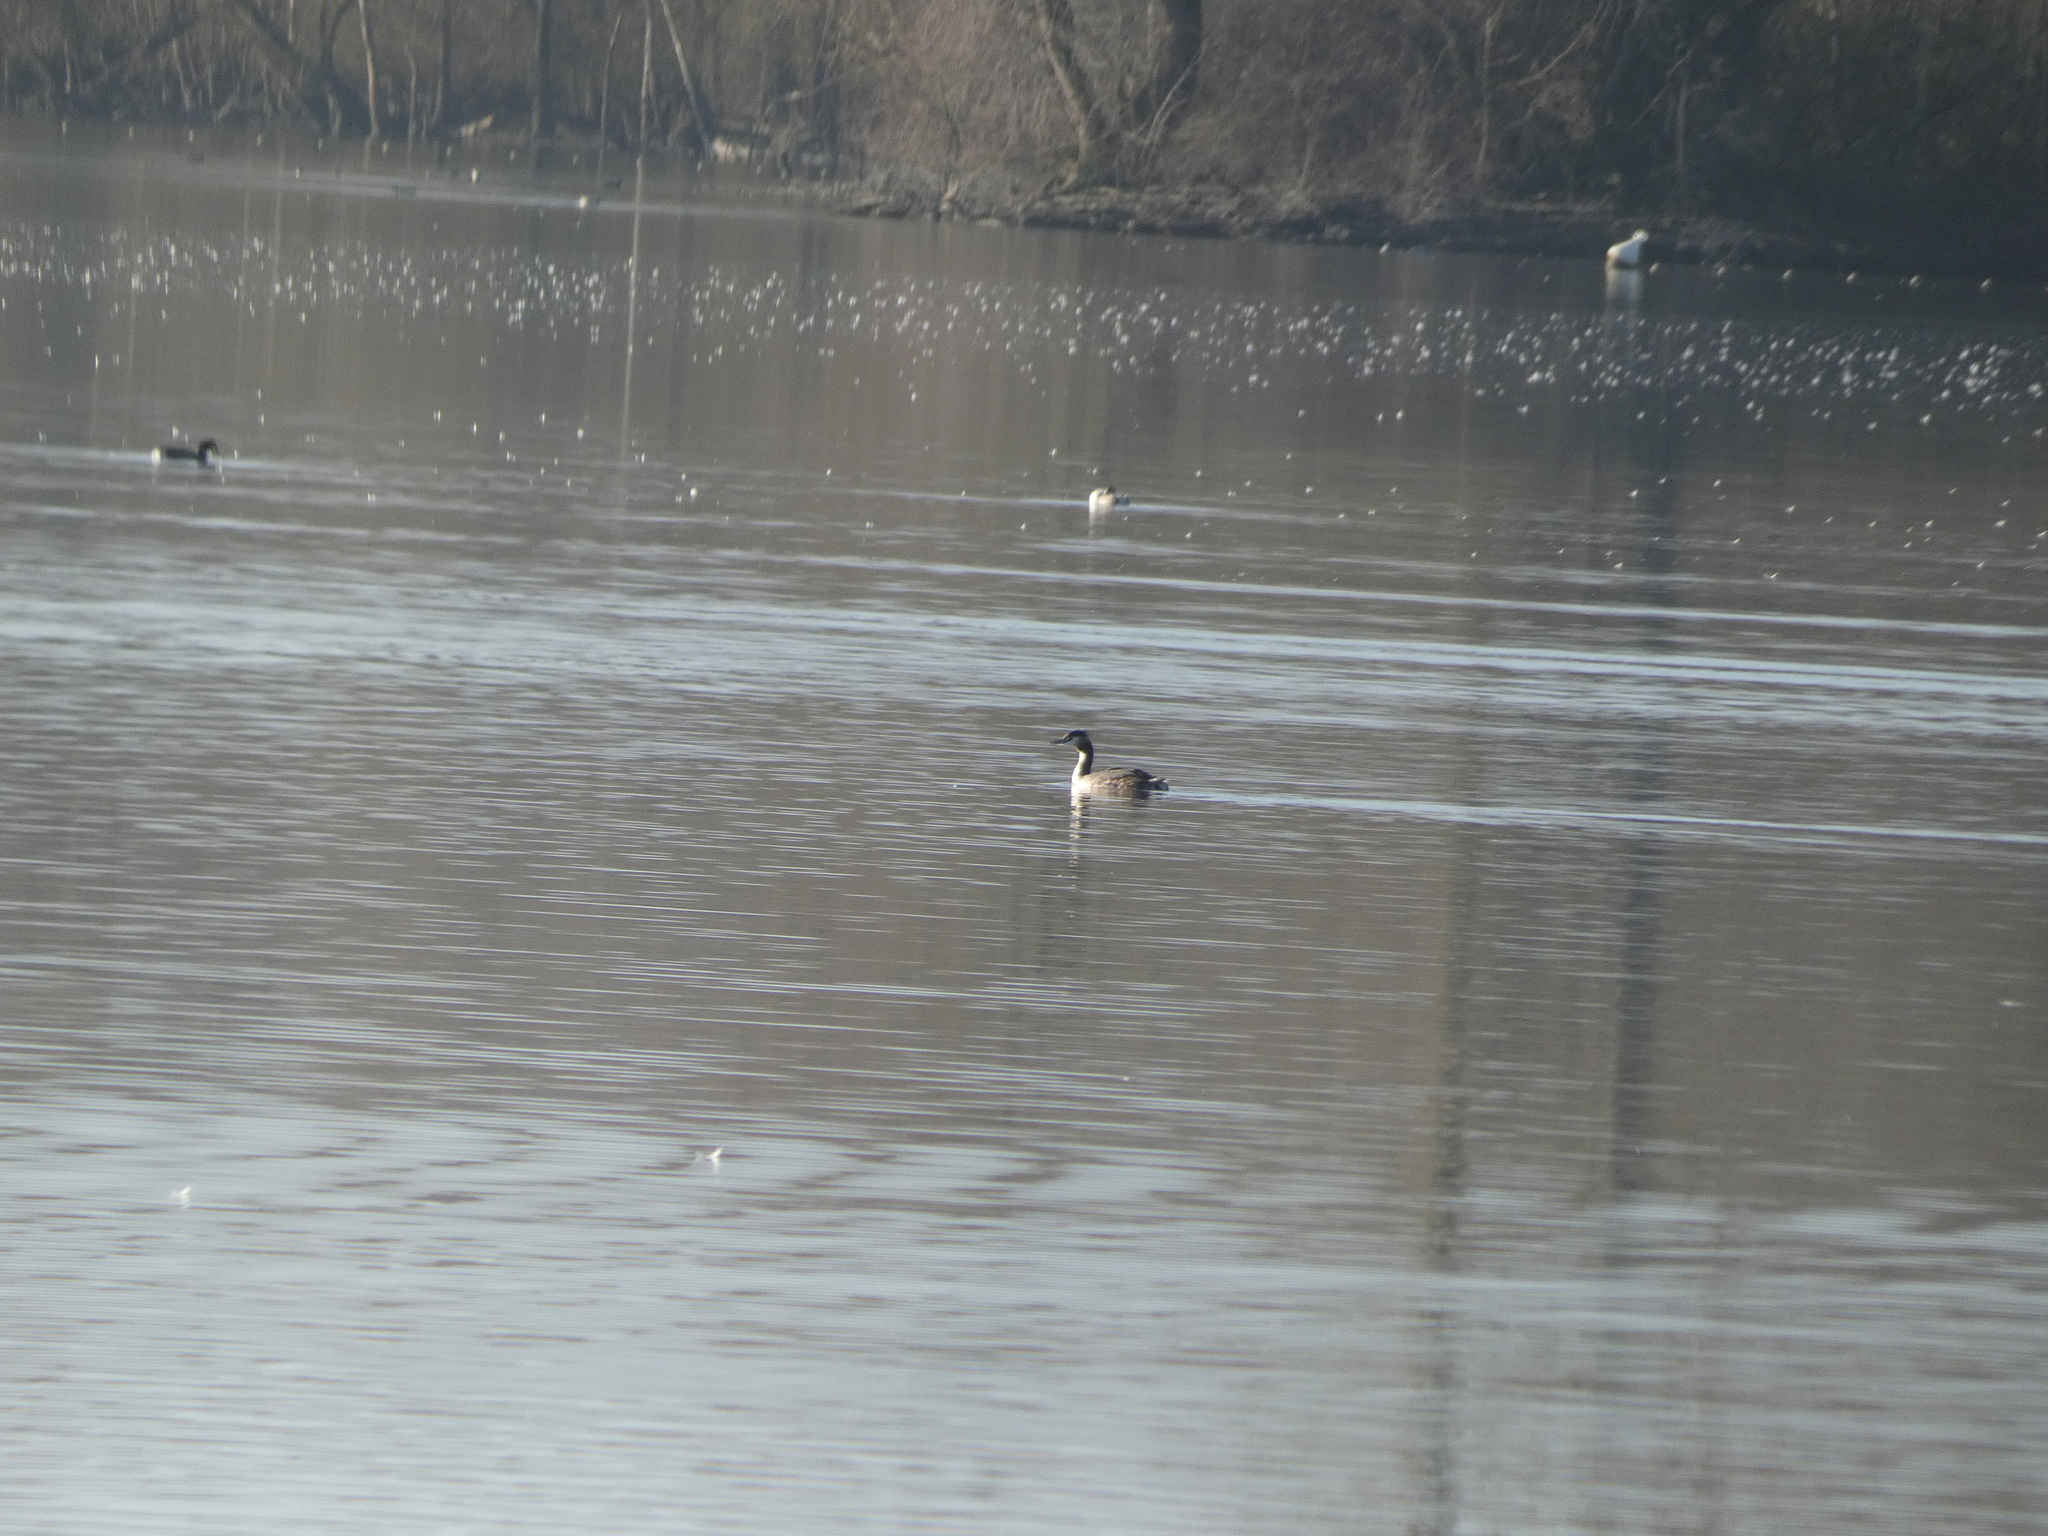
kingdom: Animalia
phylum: Chordata
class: Aves
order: Podicipediformes
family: Podicipedidae
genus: Podiceps
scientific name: Podiceps cristatus
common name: Great crested grebe
